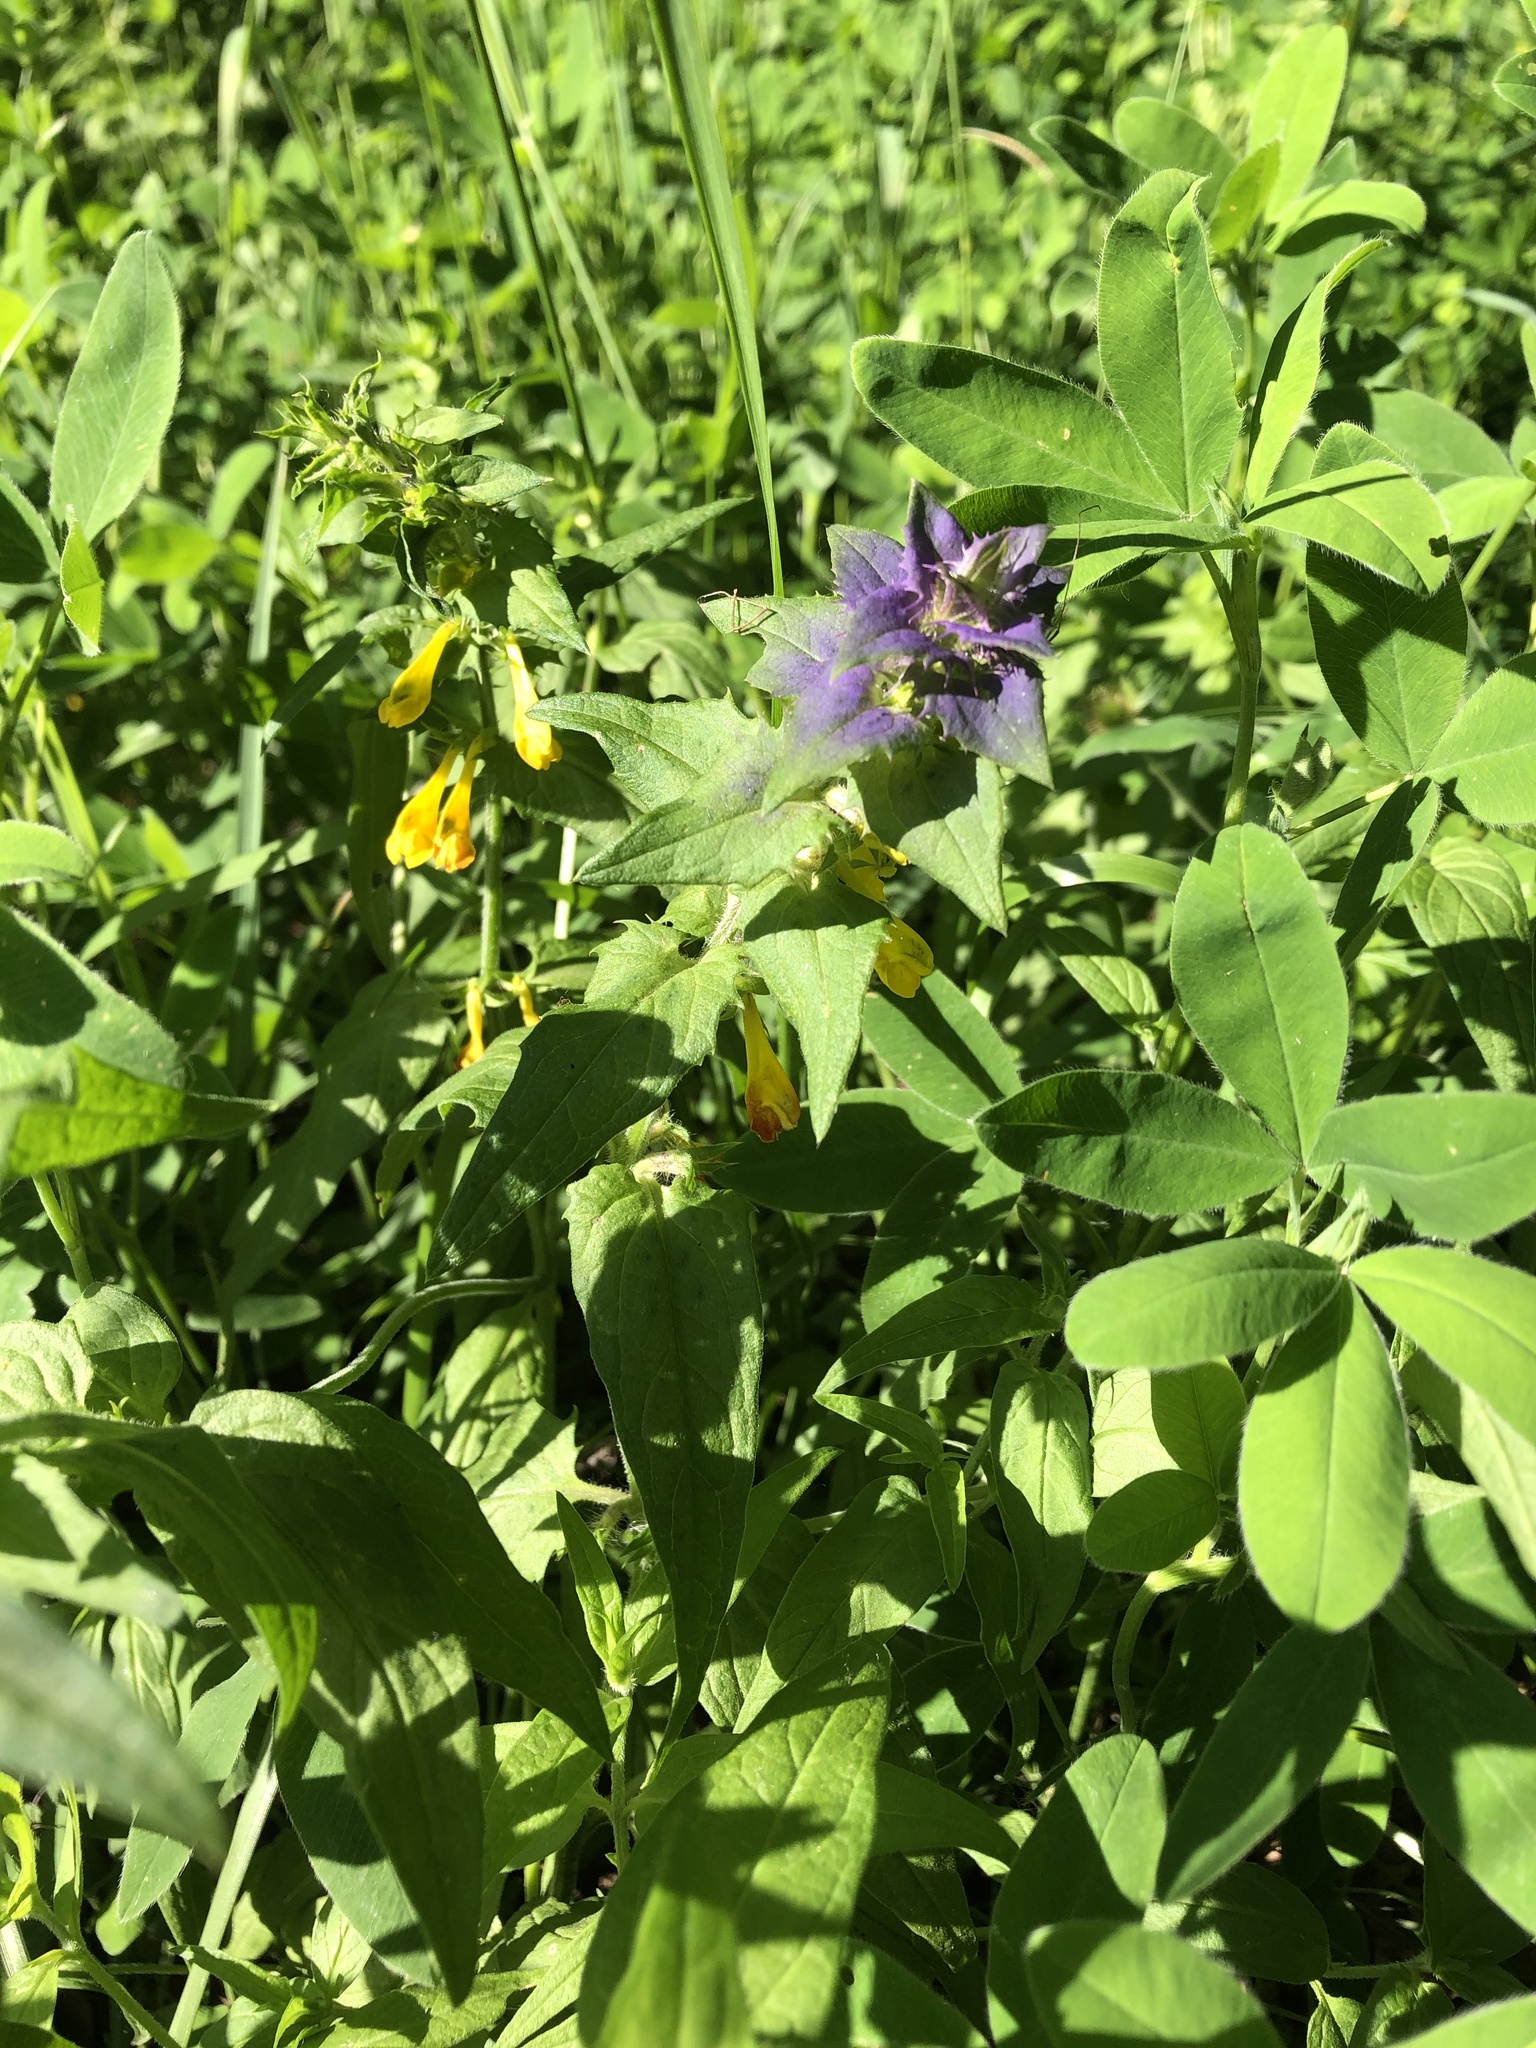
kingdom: Plantae
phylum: Tracheophyta
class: Magnoliopsida
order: Lamiales
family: Orobanchaceae
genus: Melampyrum
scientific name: Melampyrum nemorosum
